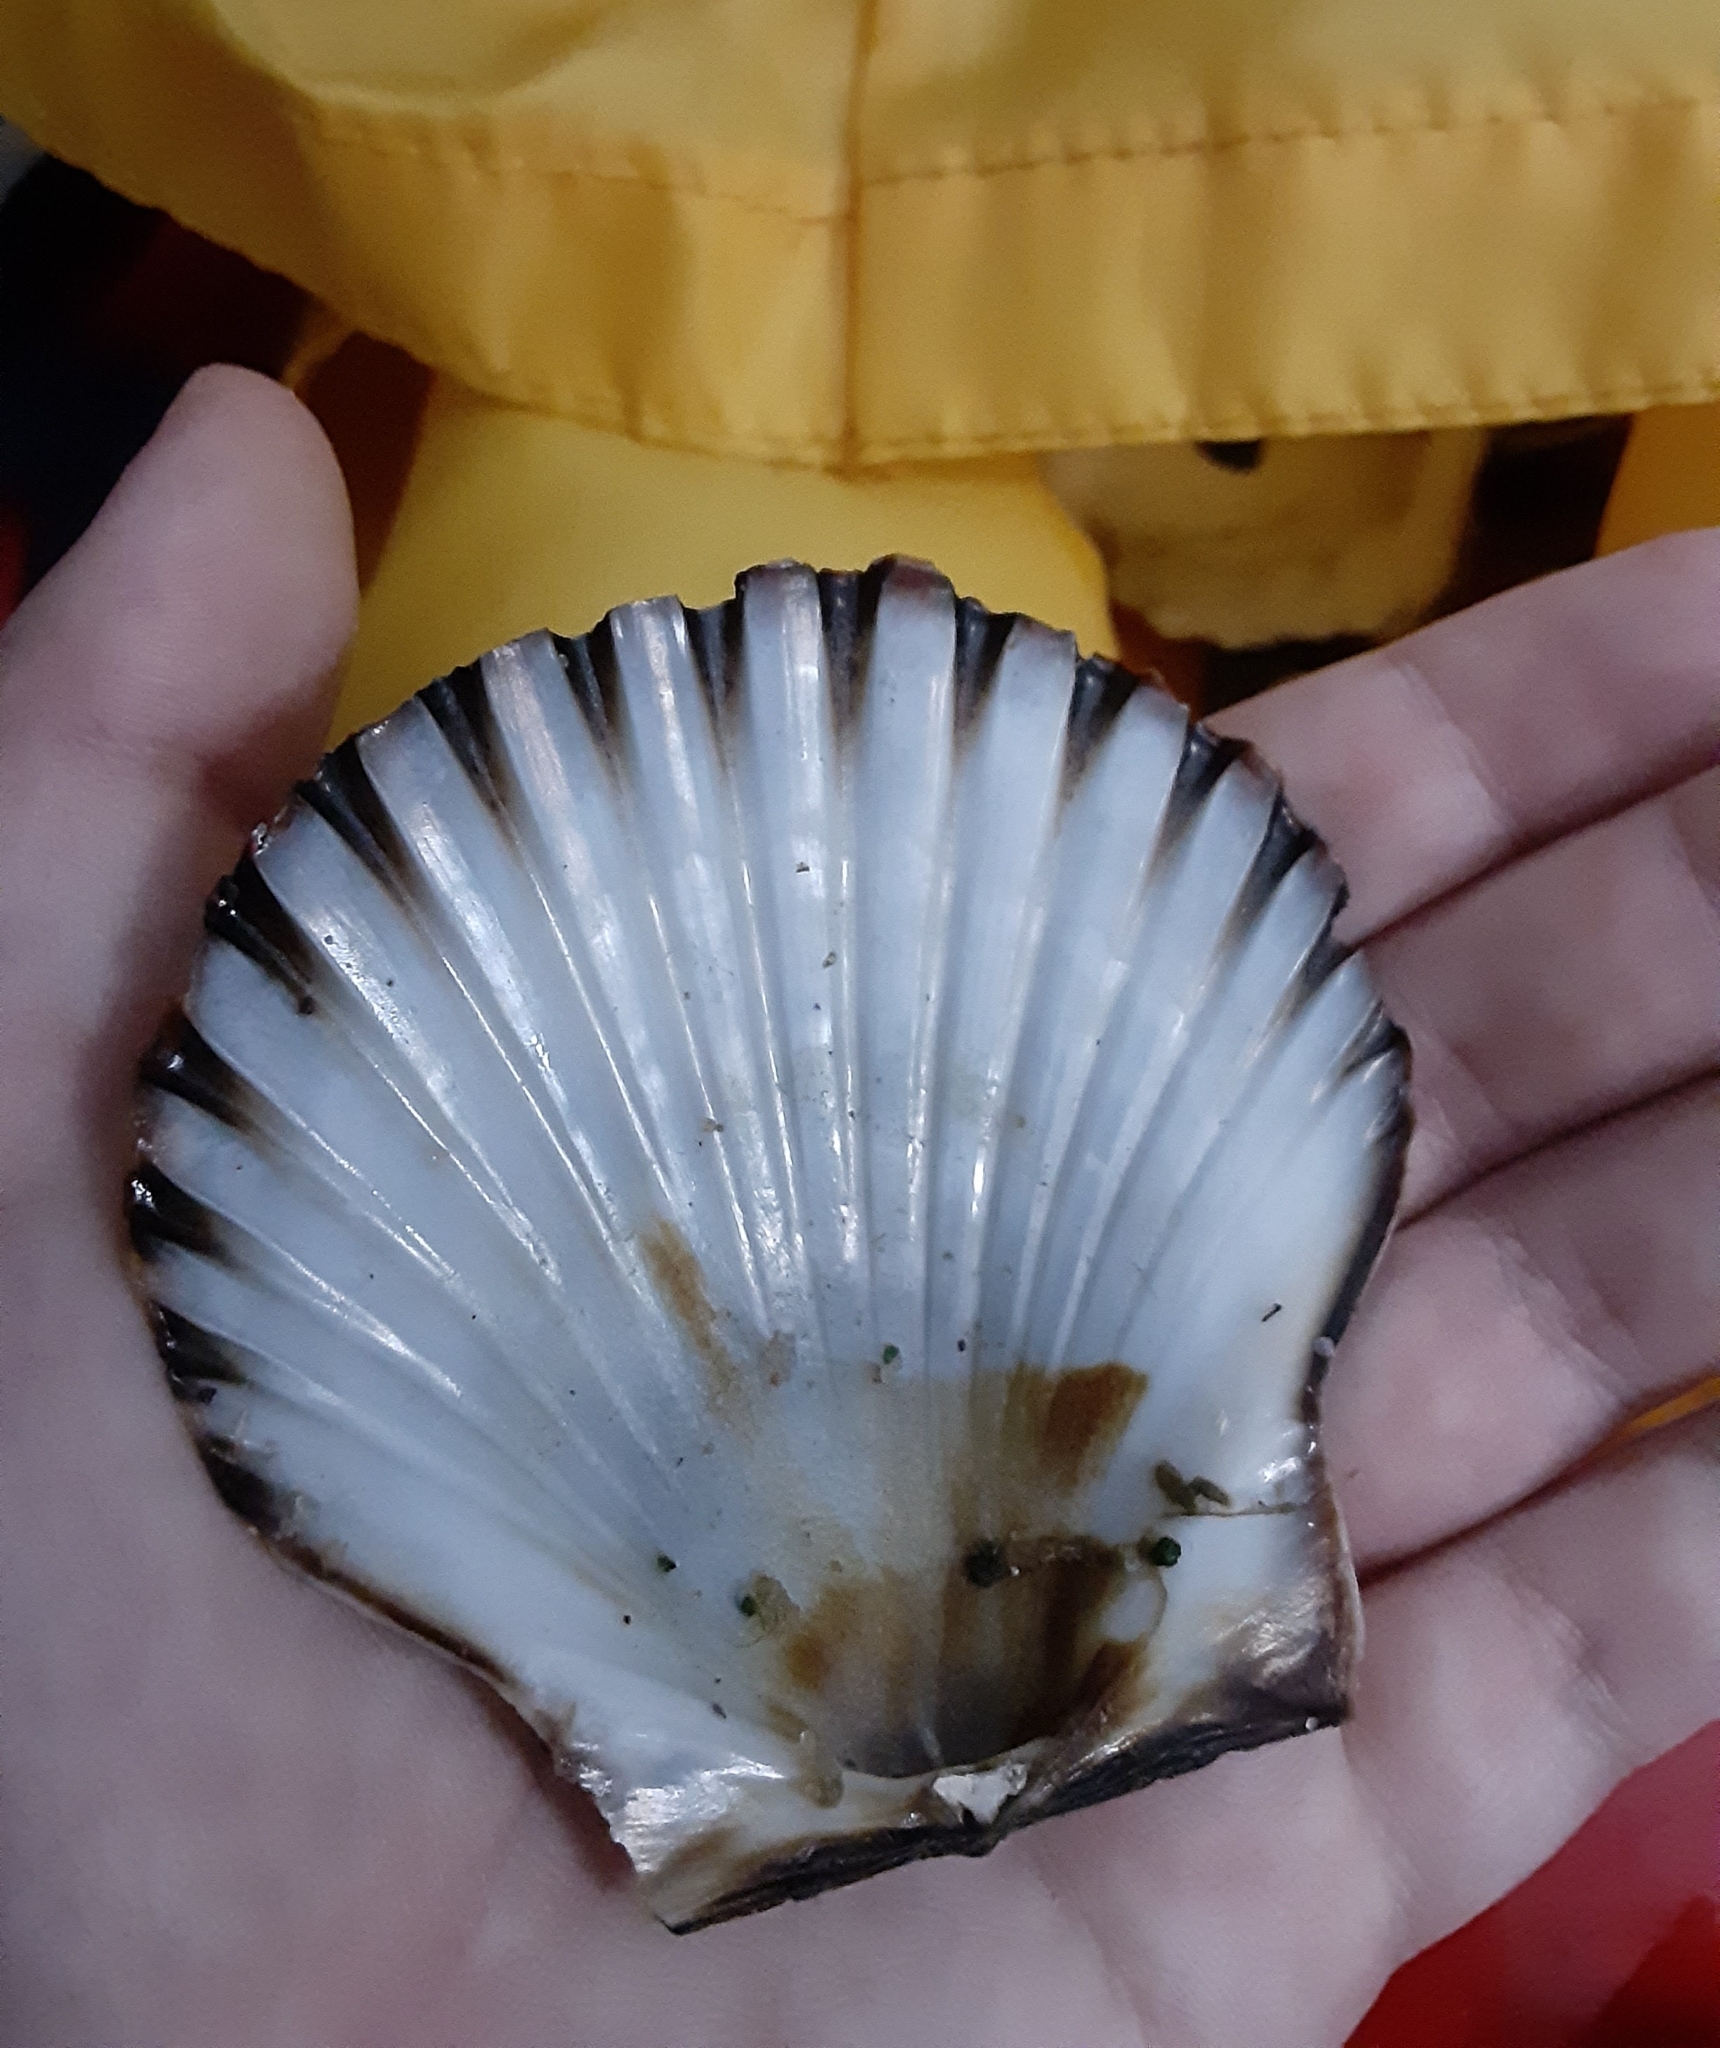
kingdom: Animalia
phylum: Mollusca
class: Bivalvia
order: Pectinida
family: Pectinidae
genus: Argopecten
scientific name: Argopecten irradians
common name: Atlantic bay scallop
